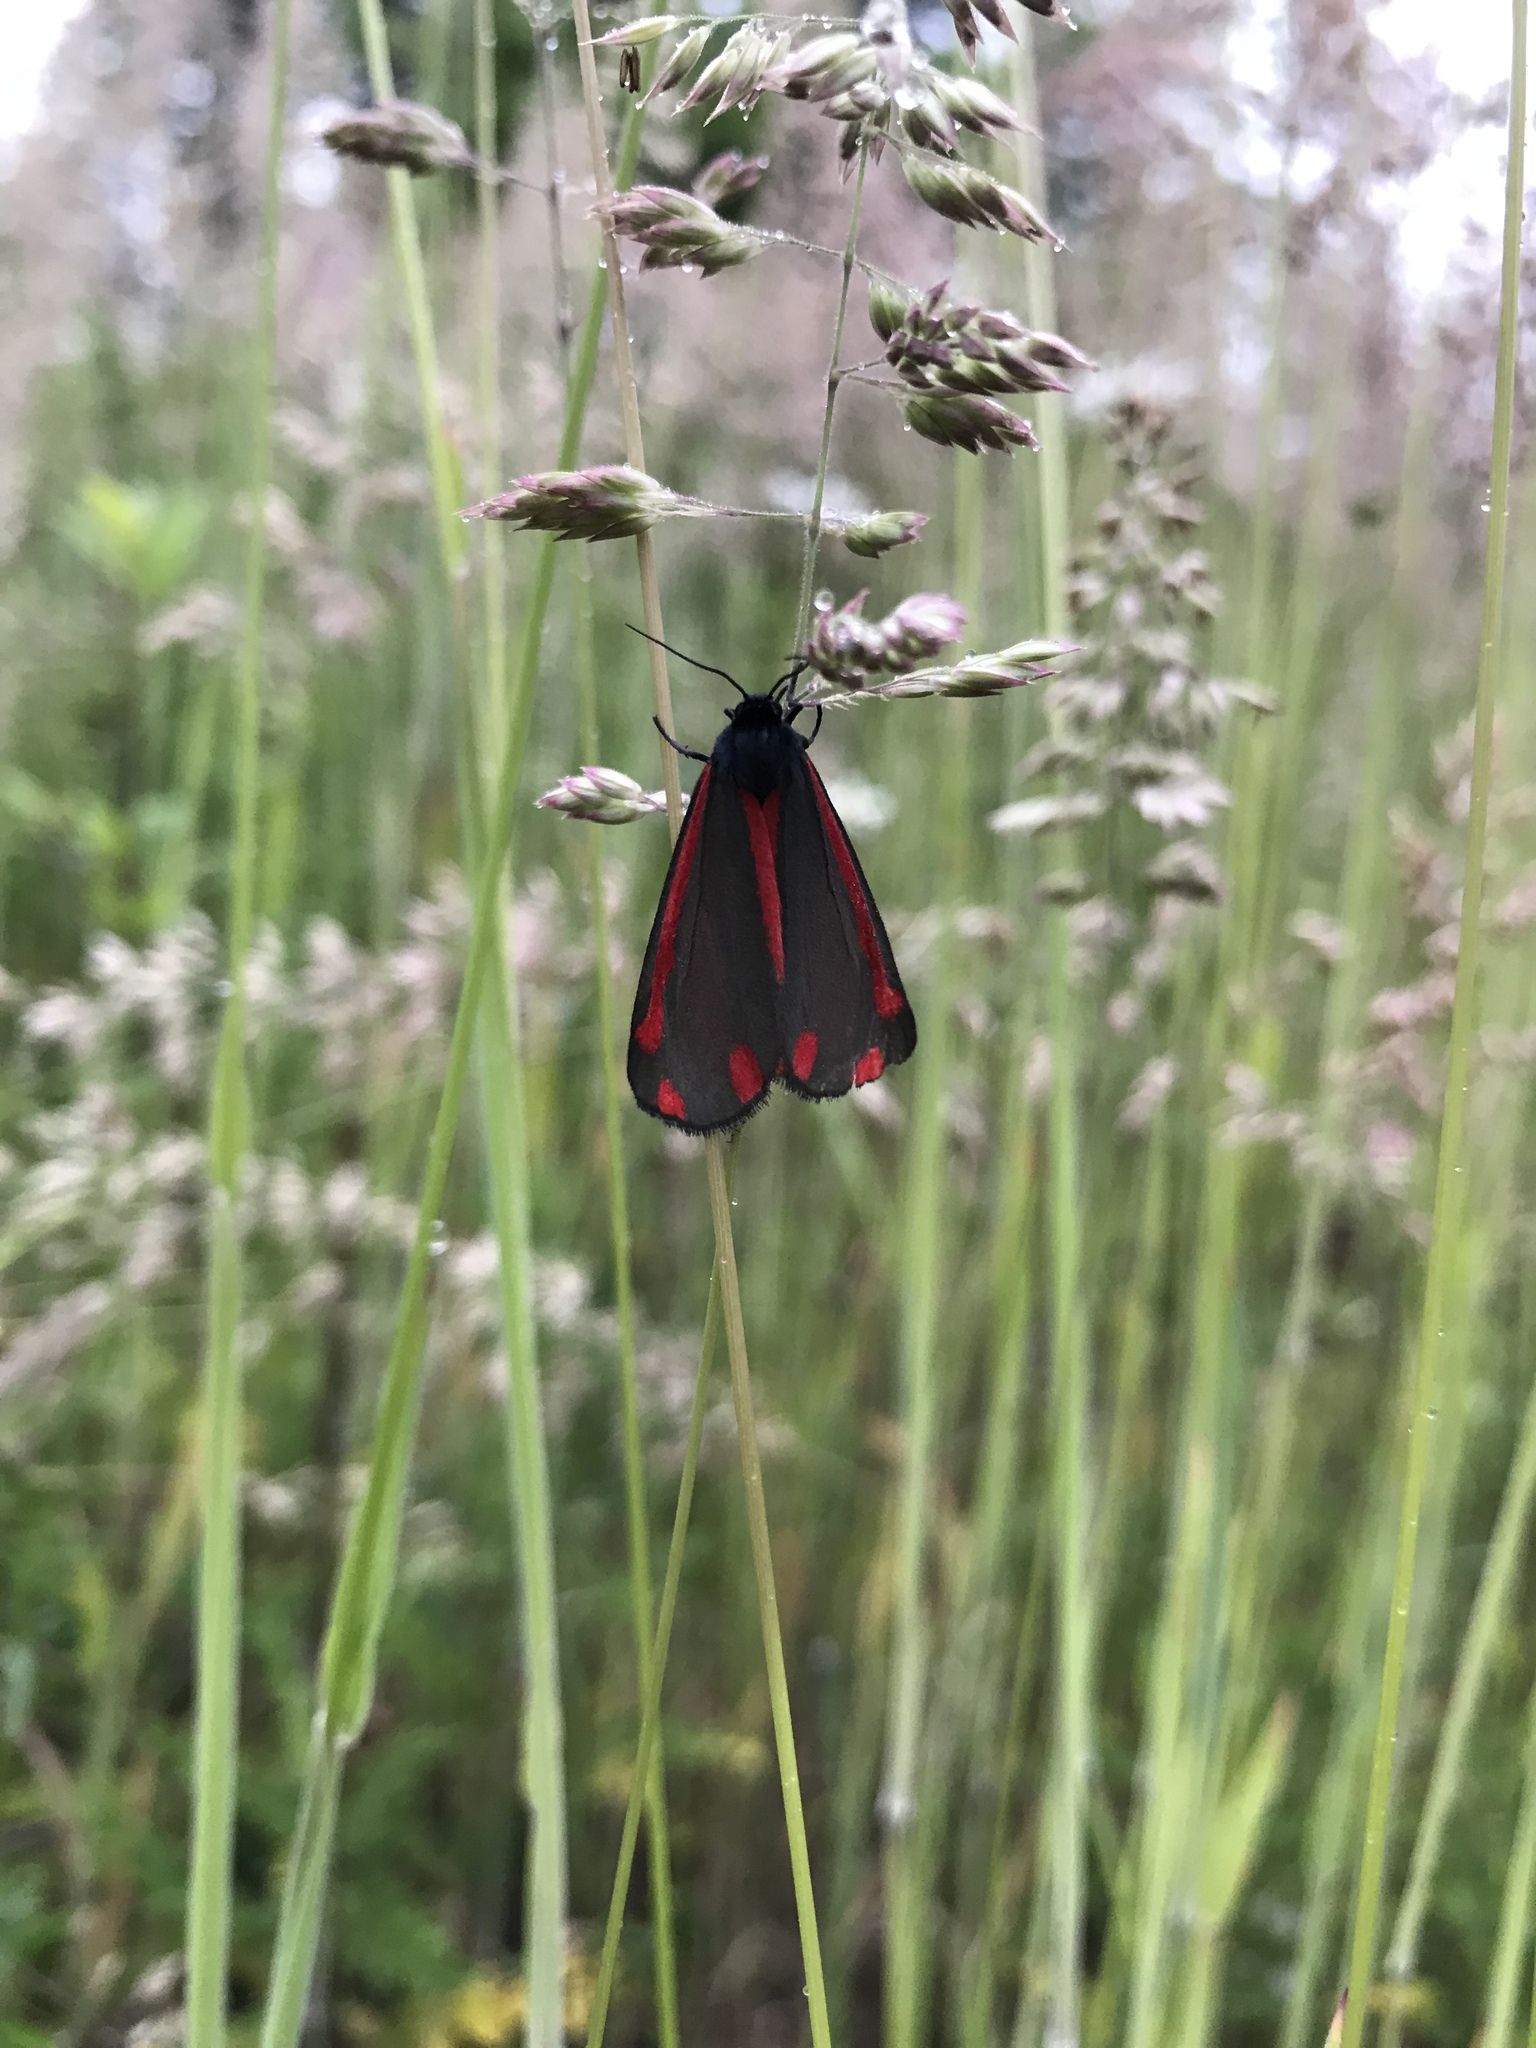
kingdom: Animalia
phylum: Arthropoda
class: Insecta
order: Lepidoptera
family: Erebidae
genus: Tyria
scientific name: Tyria jacobaeae
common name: Cinnabar
